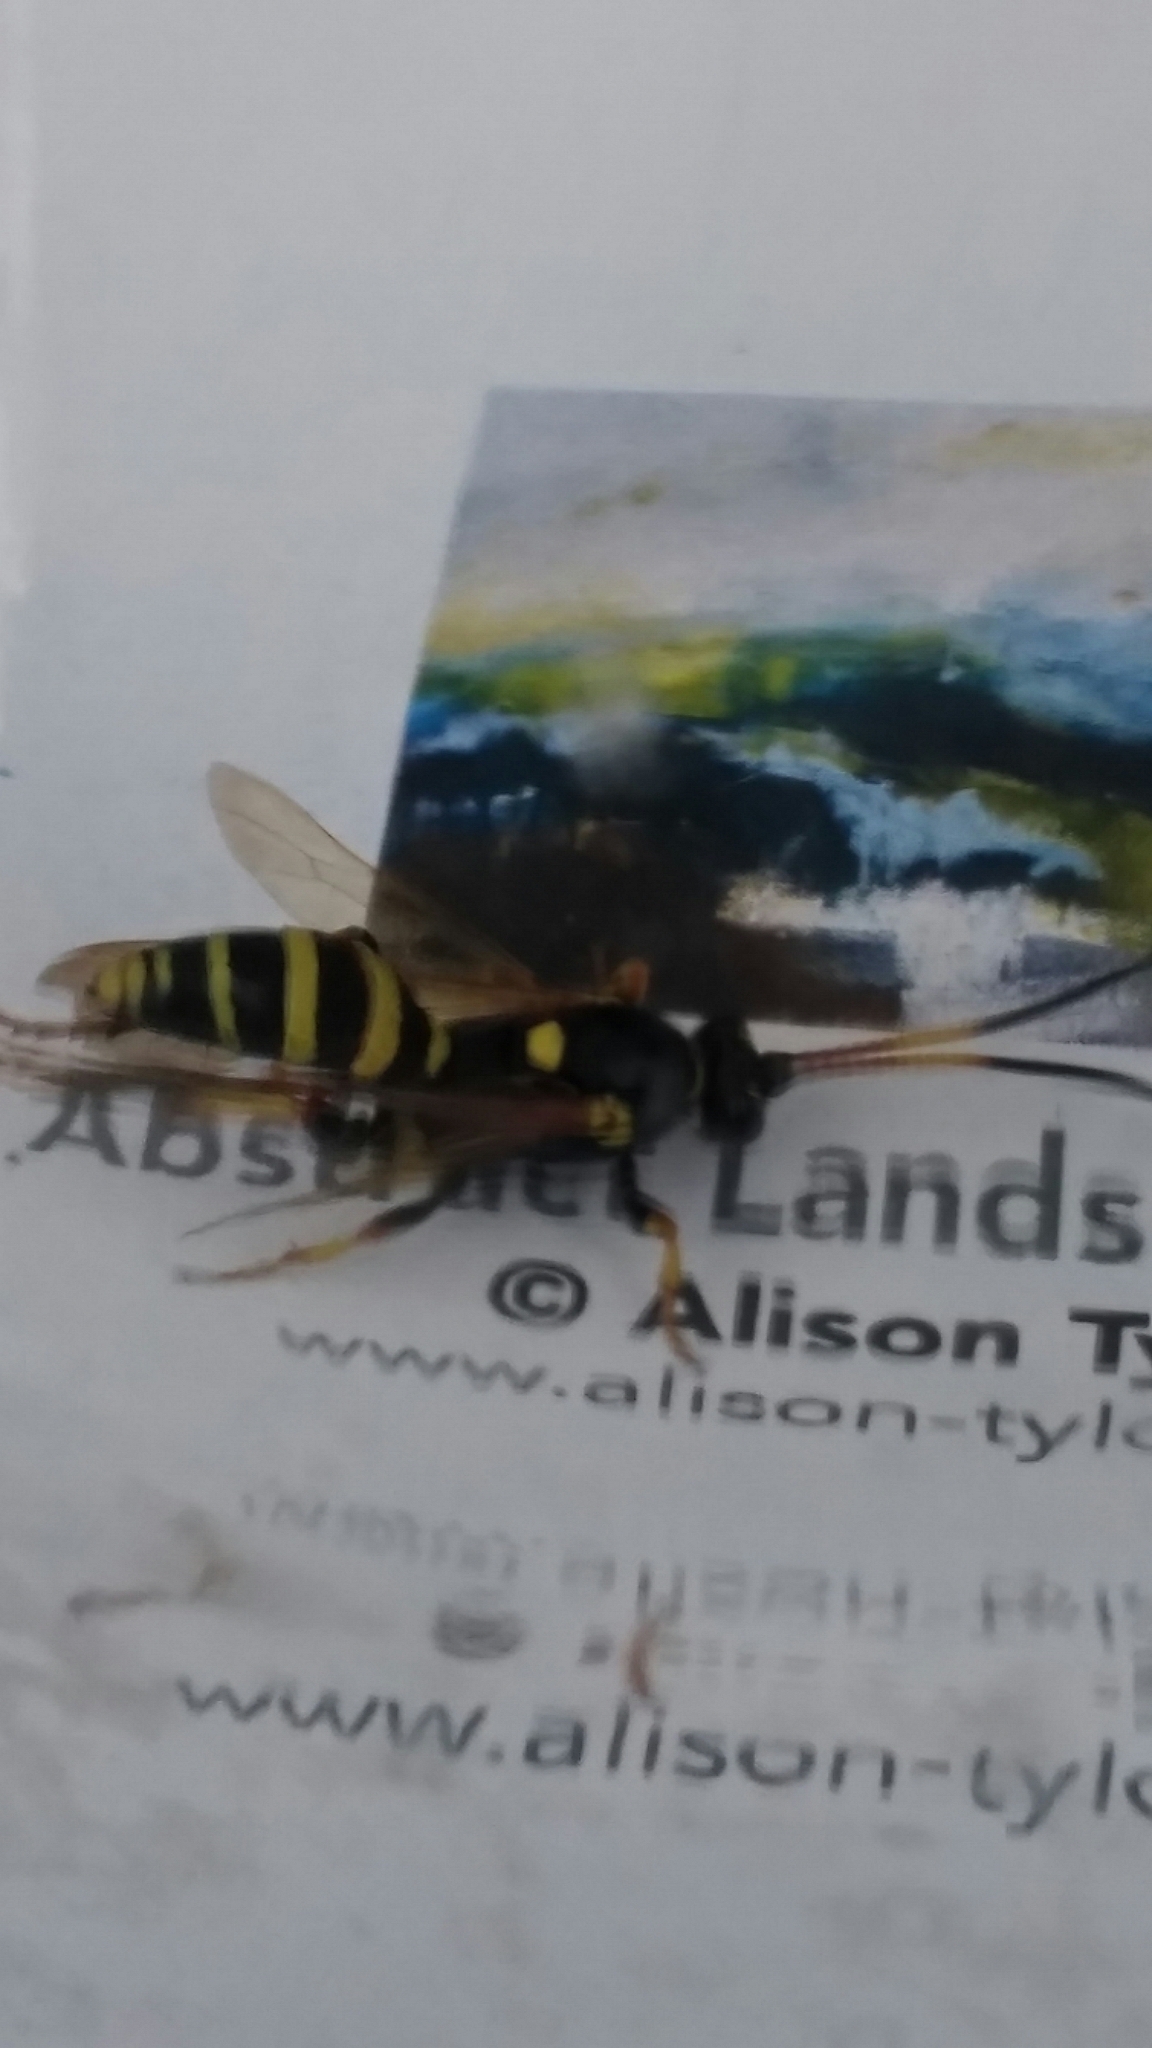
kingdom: Animalia
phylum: Arthropoda
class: Insecta
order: Hymenoptera
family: Ichneumonidae
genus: Ichneumon
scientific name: Ichneumon xanthorius
